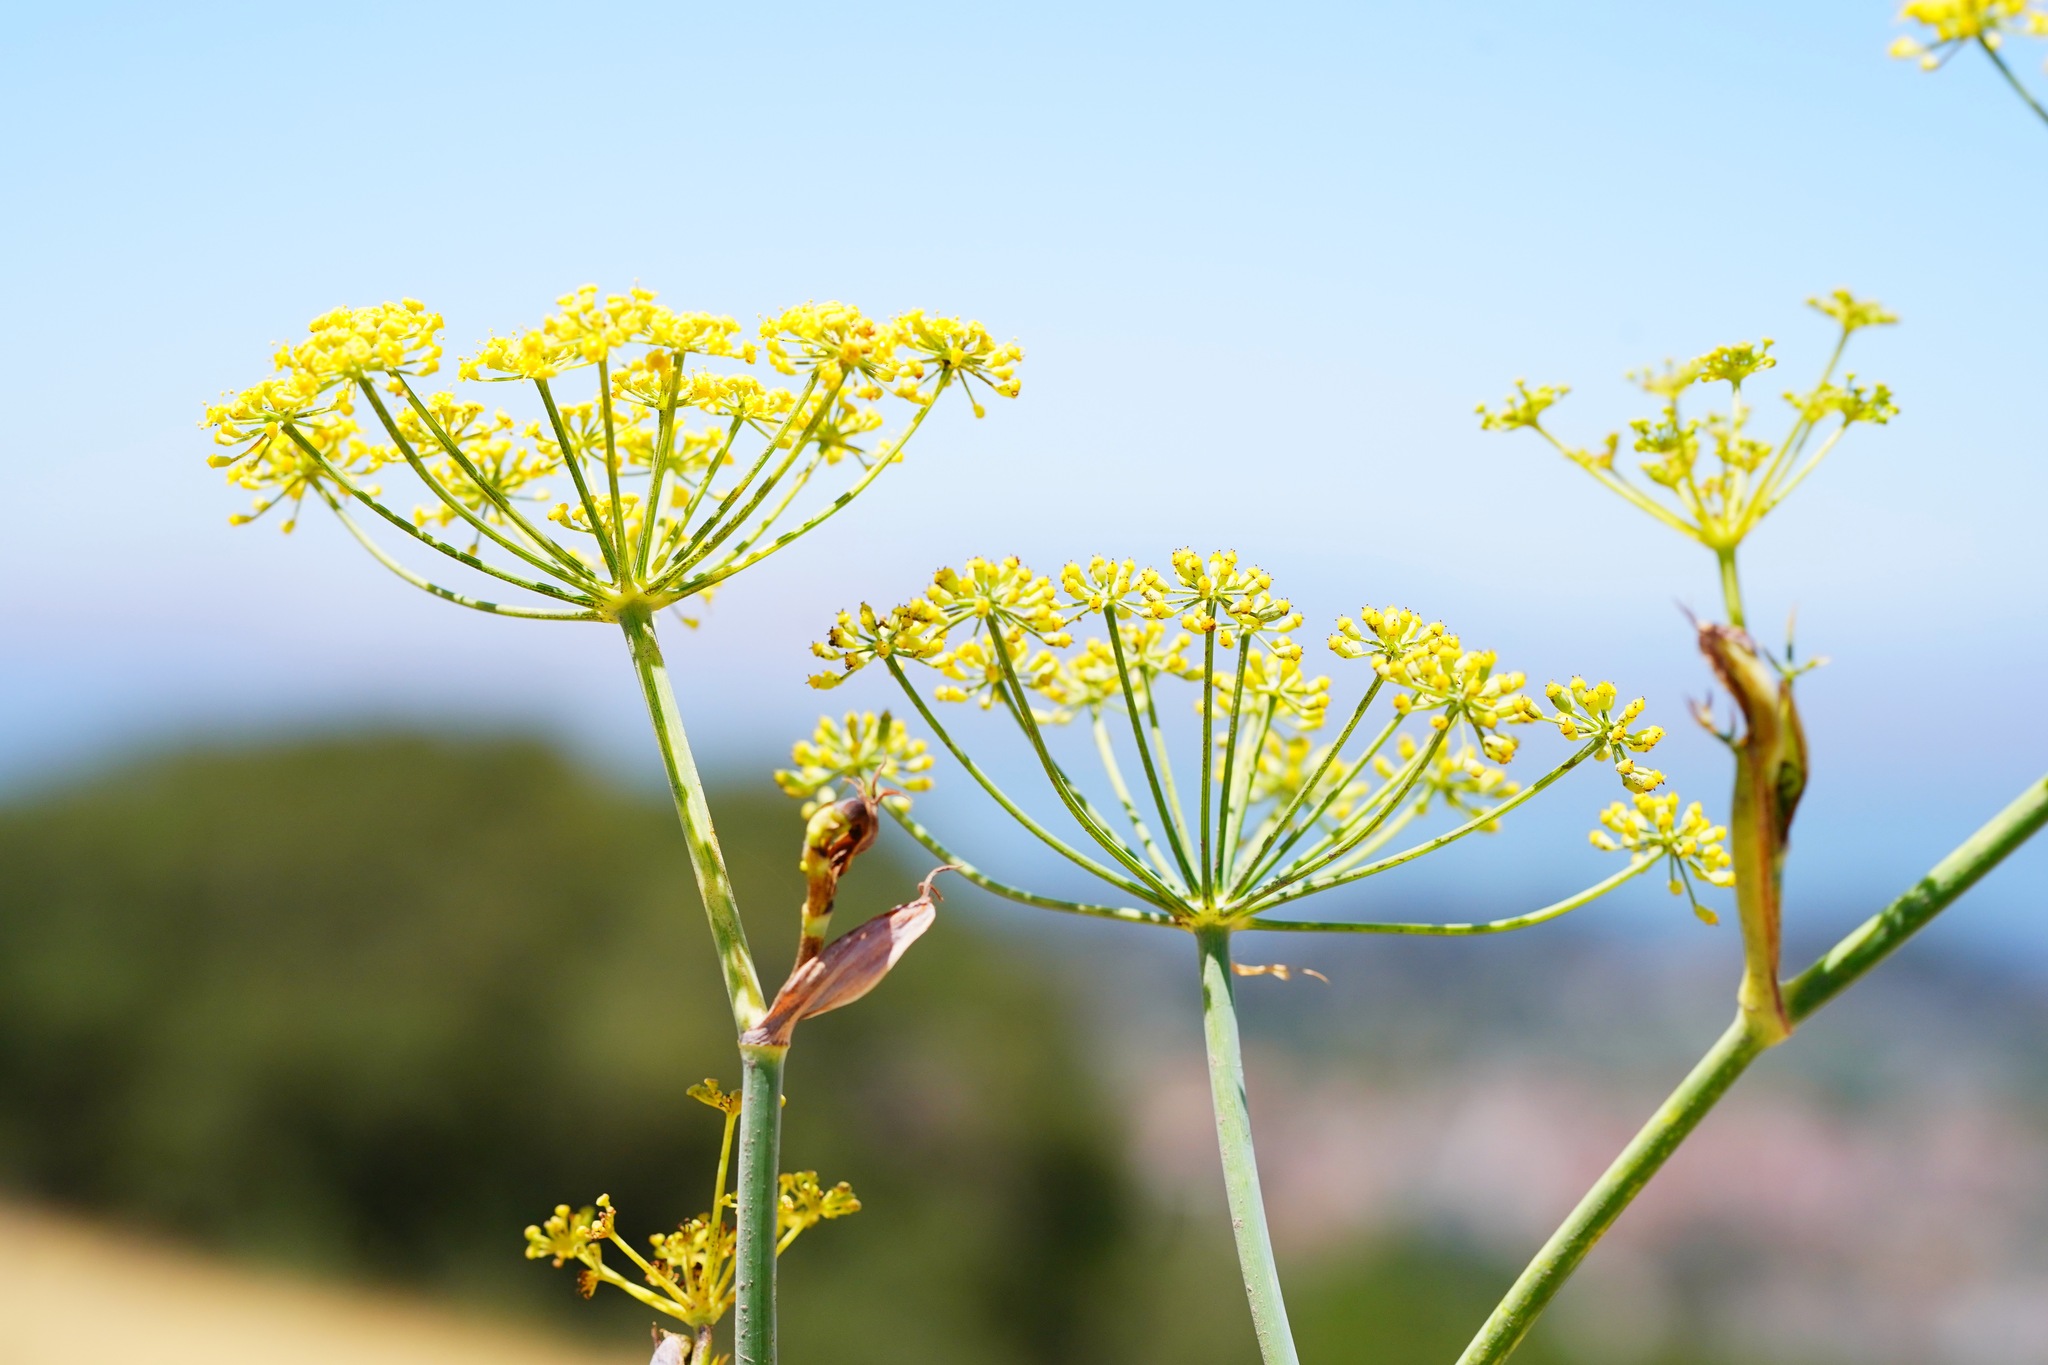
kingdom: Plantae
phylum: Tracheophyta
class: Magnoliopsida
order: Apiales
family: Apiaceae
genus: Foeniculum
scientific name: Foeniculum vulgare
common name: Fennel
